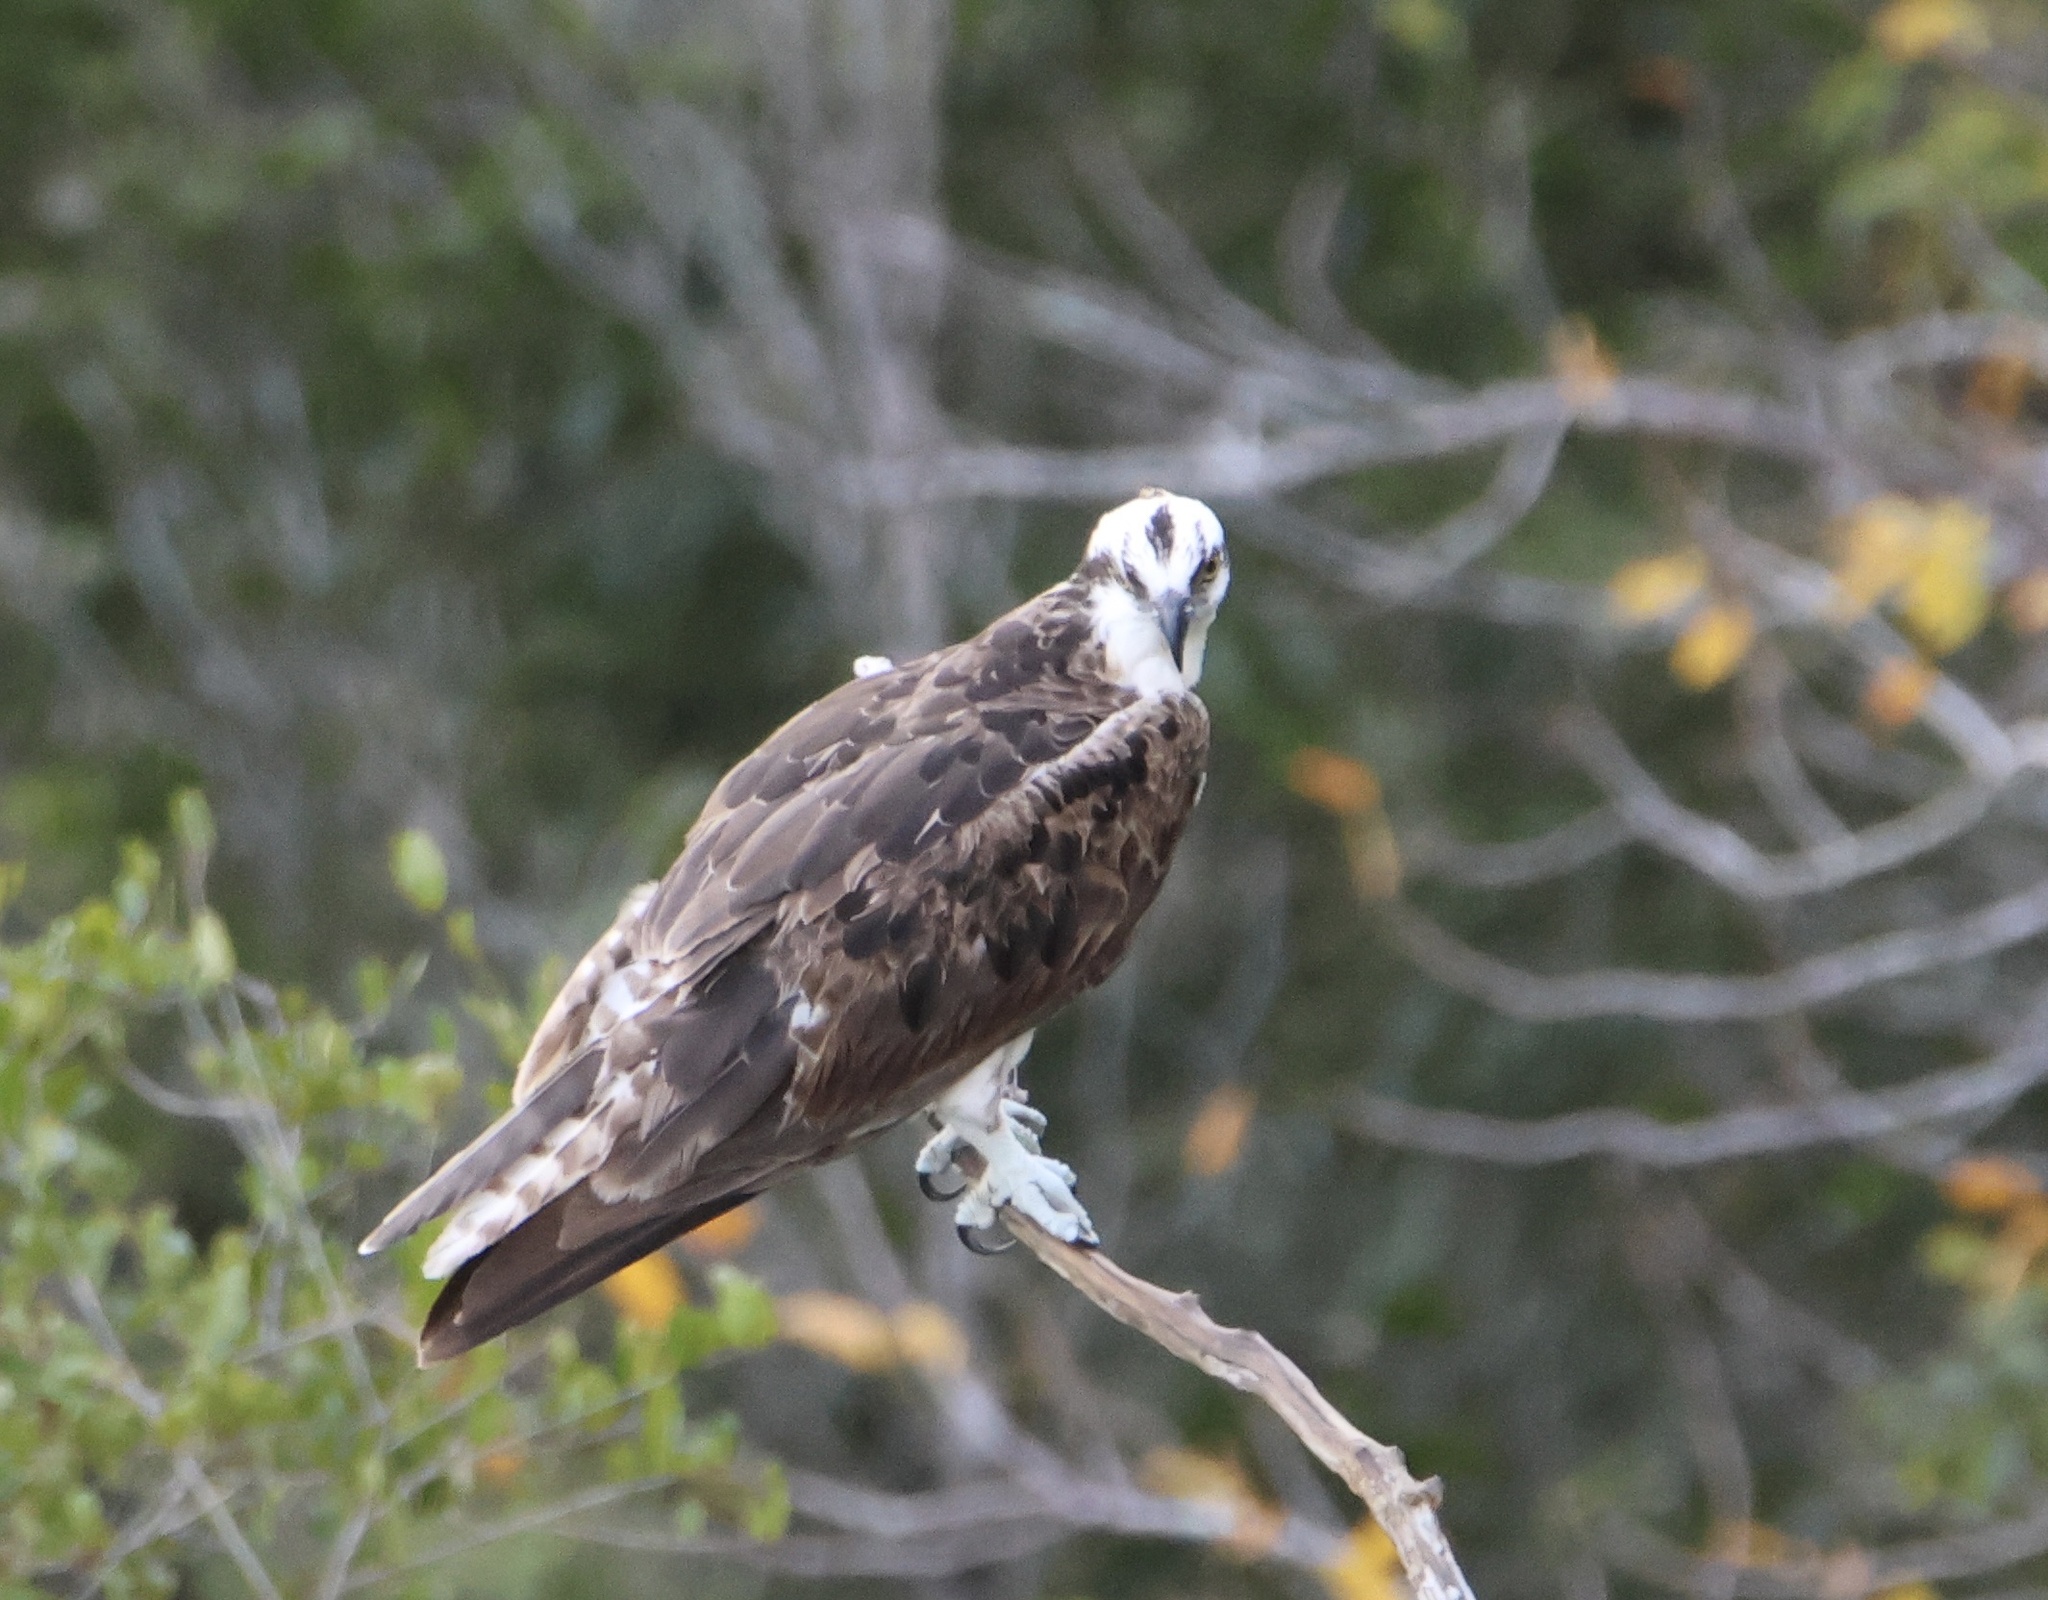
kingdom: Animalia
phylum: Chordata
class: Aves
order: Accipitriformes
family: Pandionidae
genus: Pandion
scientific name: Pandion haliaetus
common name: Osprey
